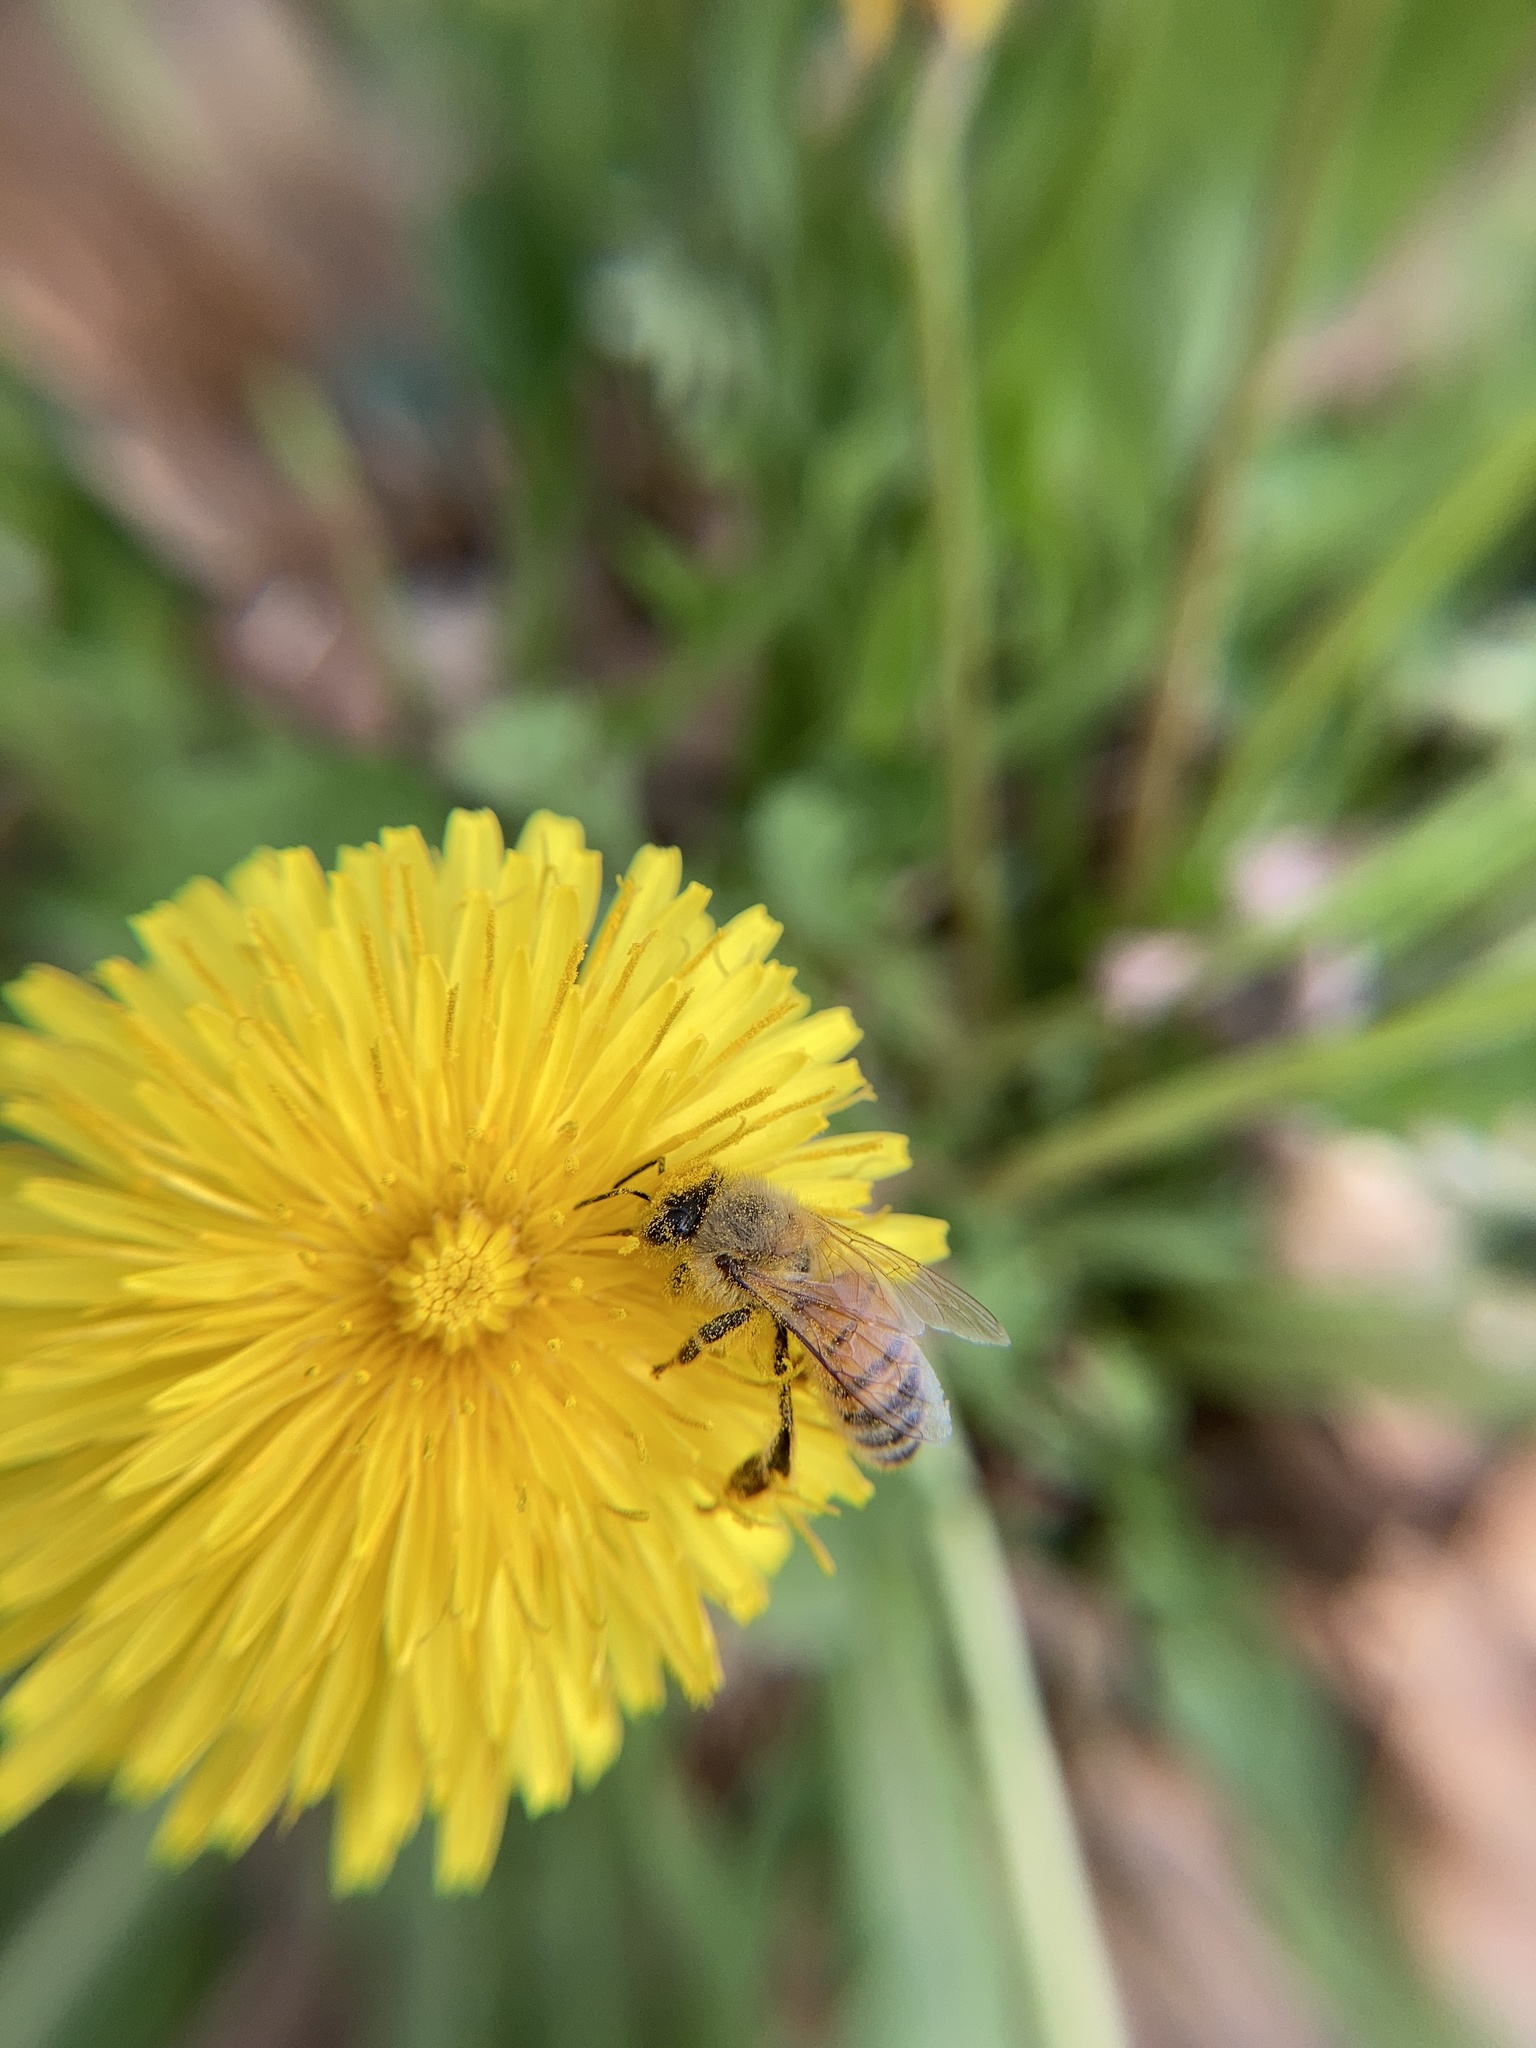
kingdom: Animalia
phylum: Arthropoda
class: Insecta
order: Hymenoptera
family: Apidae
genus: Apis
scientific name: Apis mellifera
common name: Honey bee
